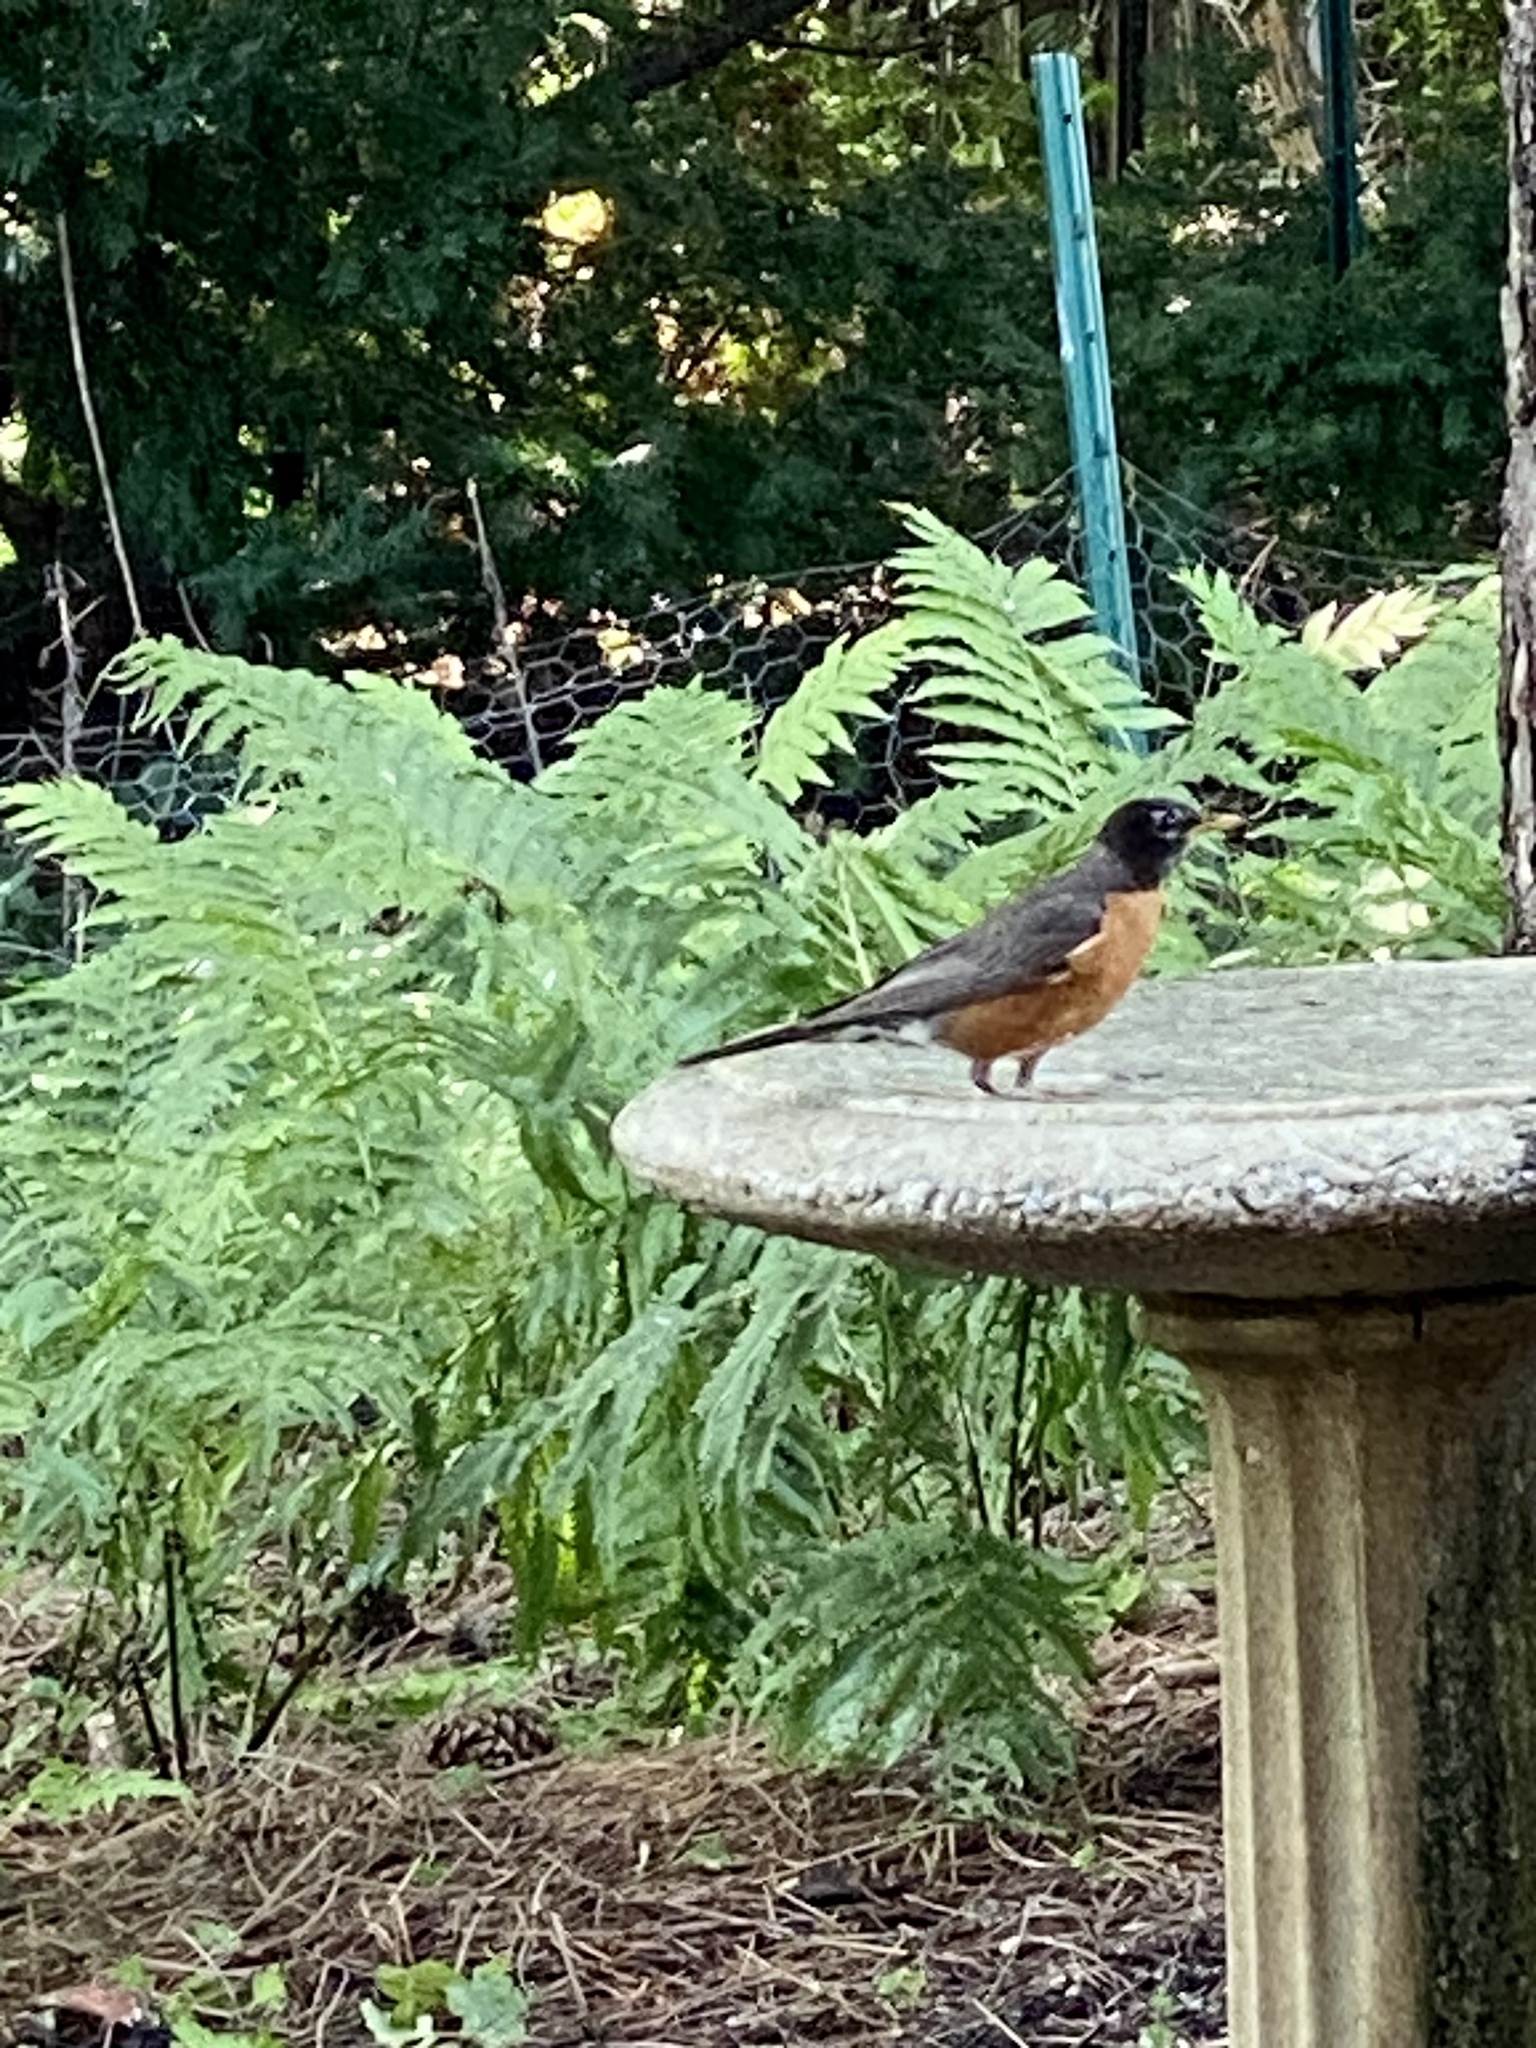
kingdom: Animalia
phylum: Chordata
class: Aves
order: Passeriformes
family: Turdidae
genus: Turdus
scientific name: Turdus migratorius
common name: American robin
